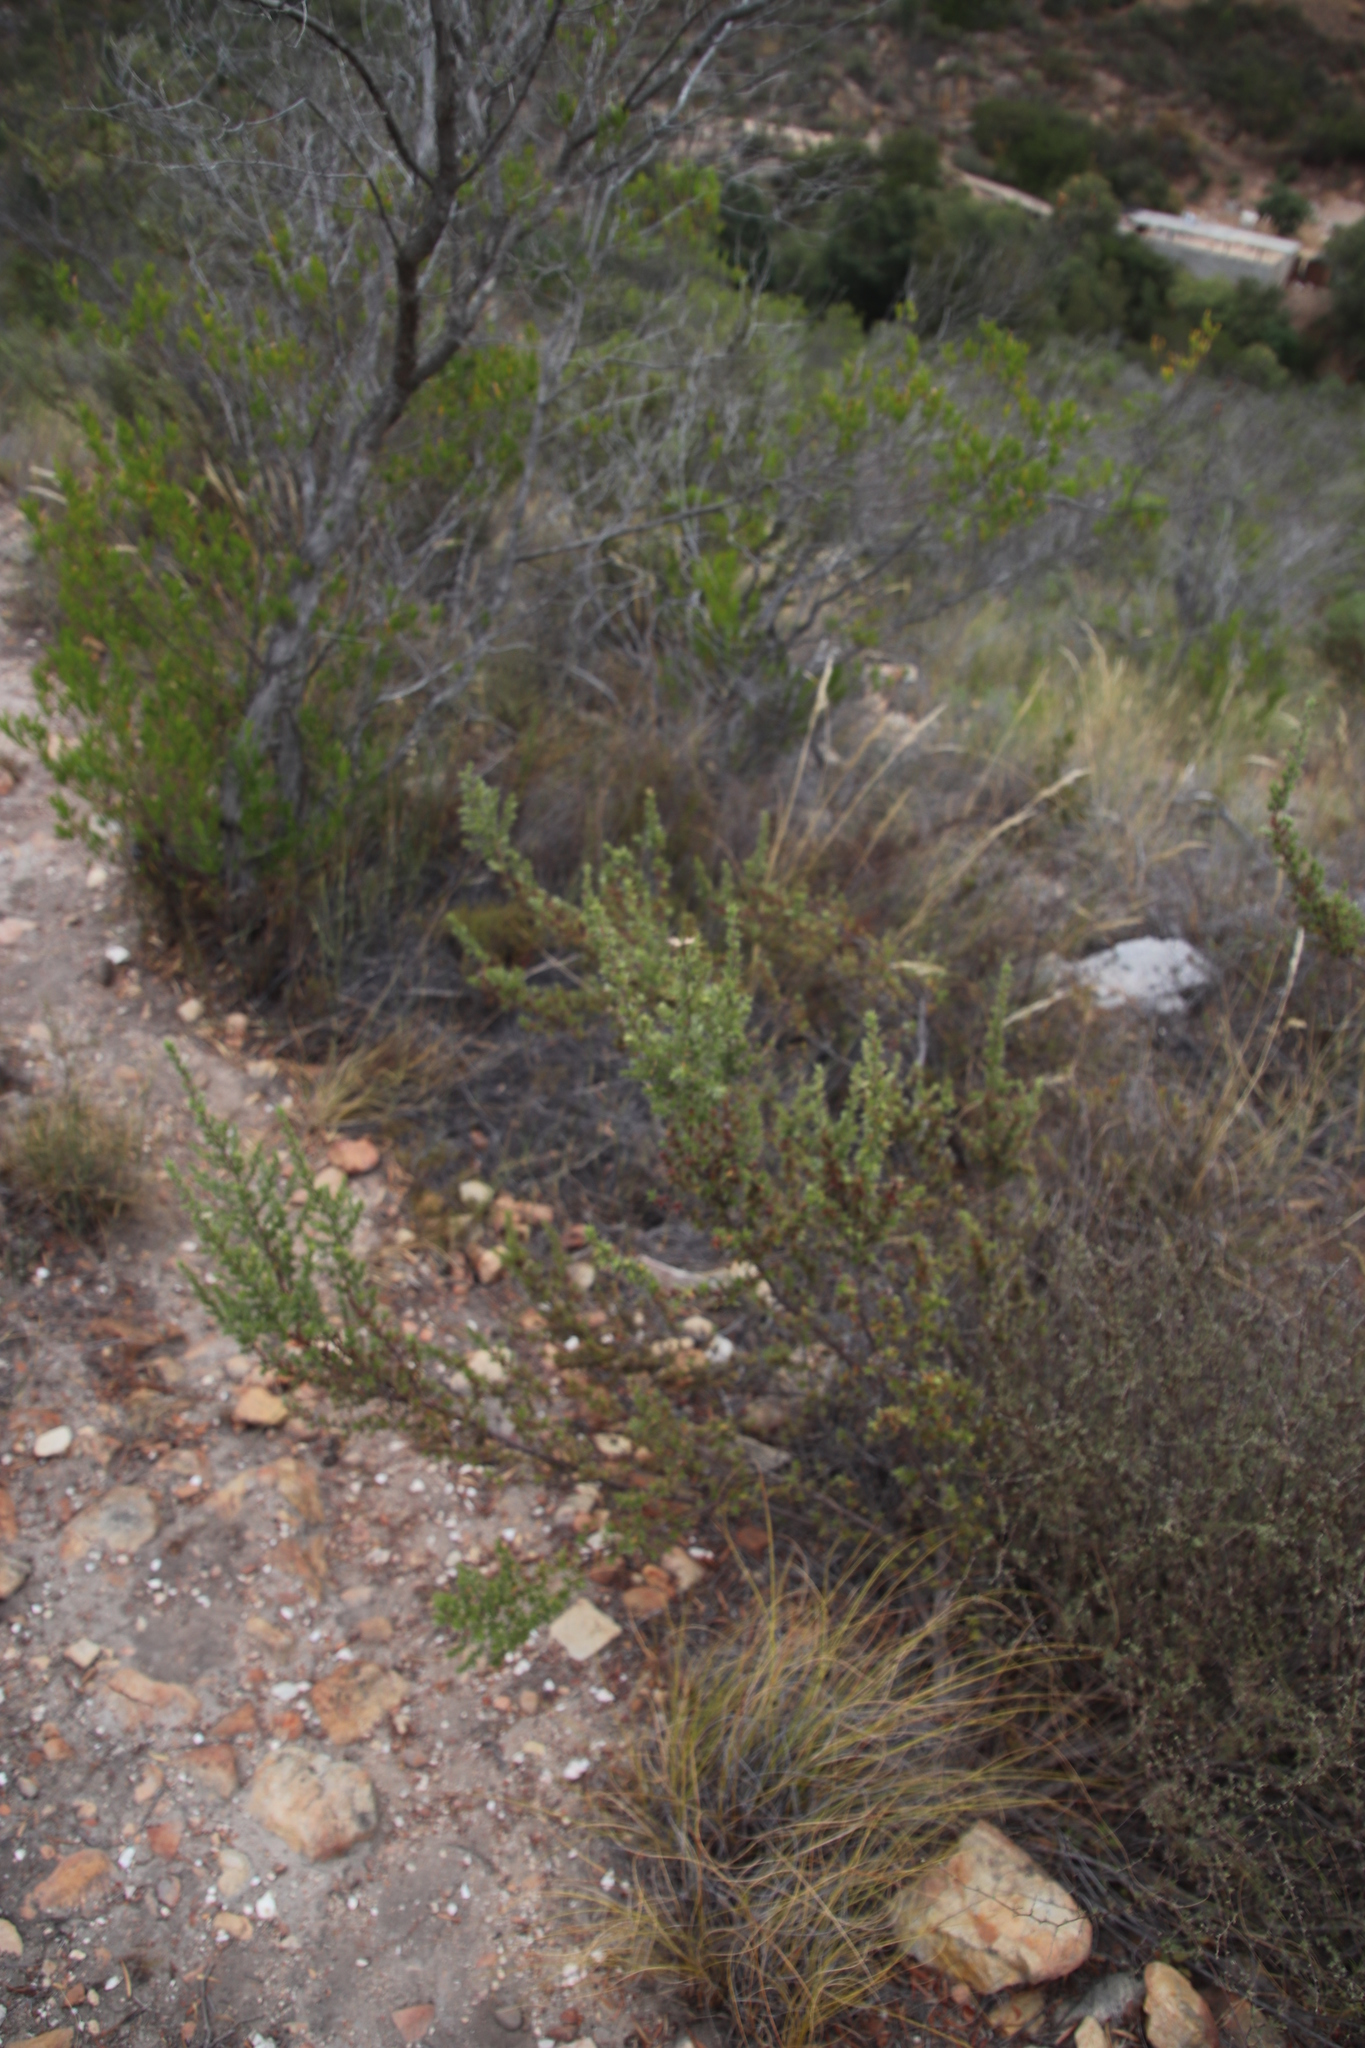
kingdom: Plantae
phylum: Tracheophyta
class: Magnoliopsida
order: Rosales
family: Rosaceae
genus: Cliffortia
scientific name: Cliffortia ruscifolia
